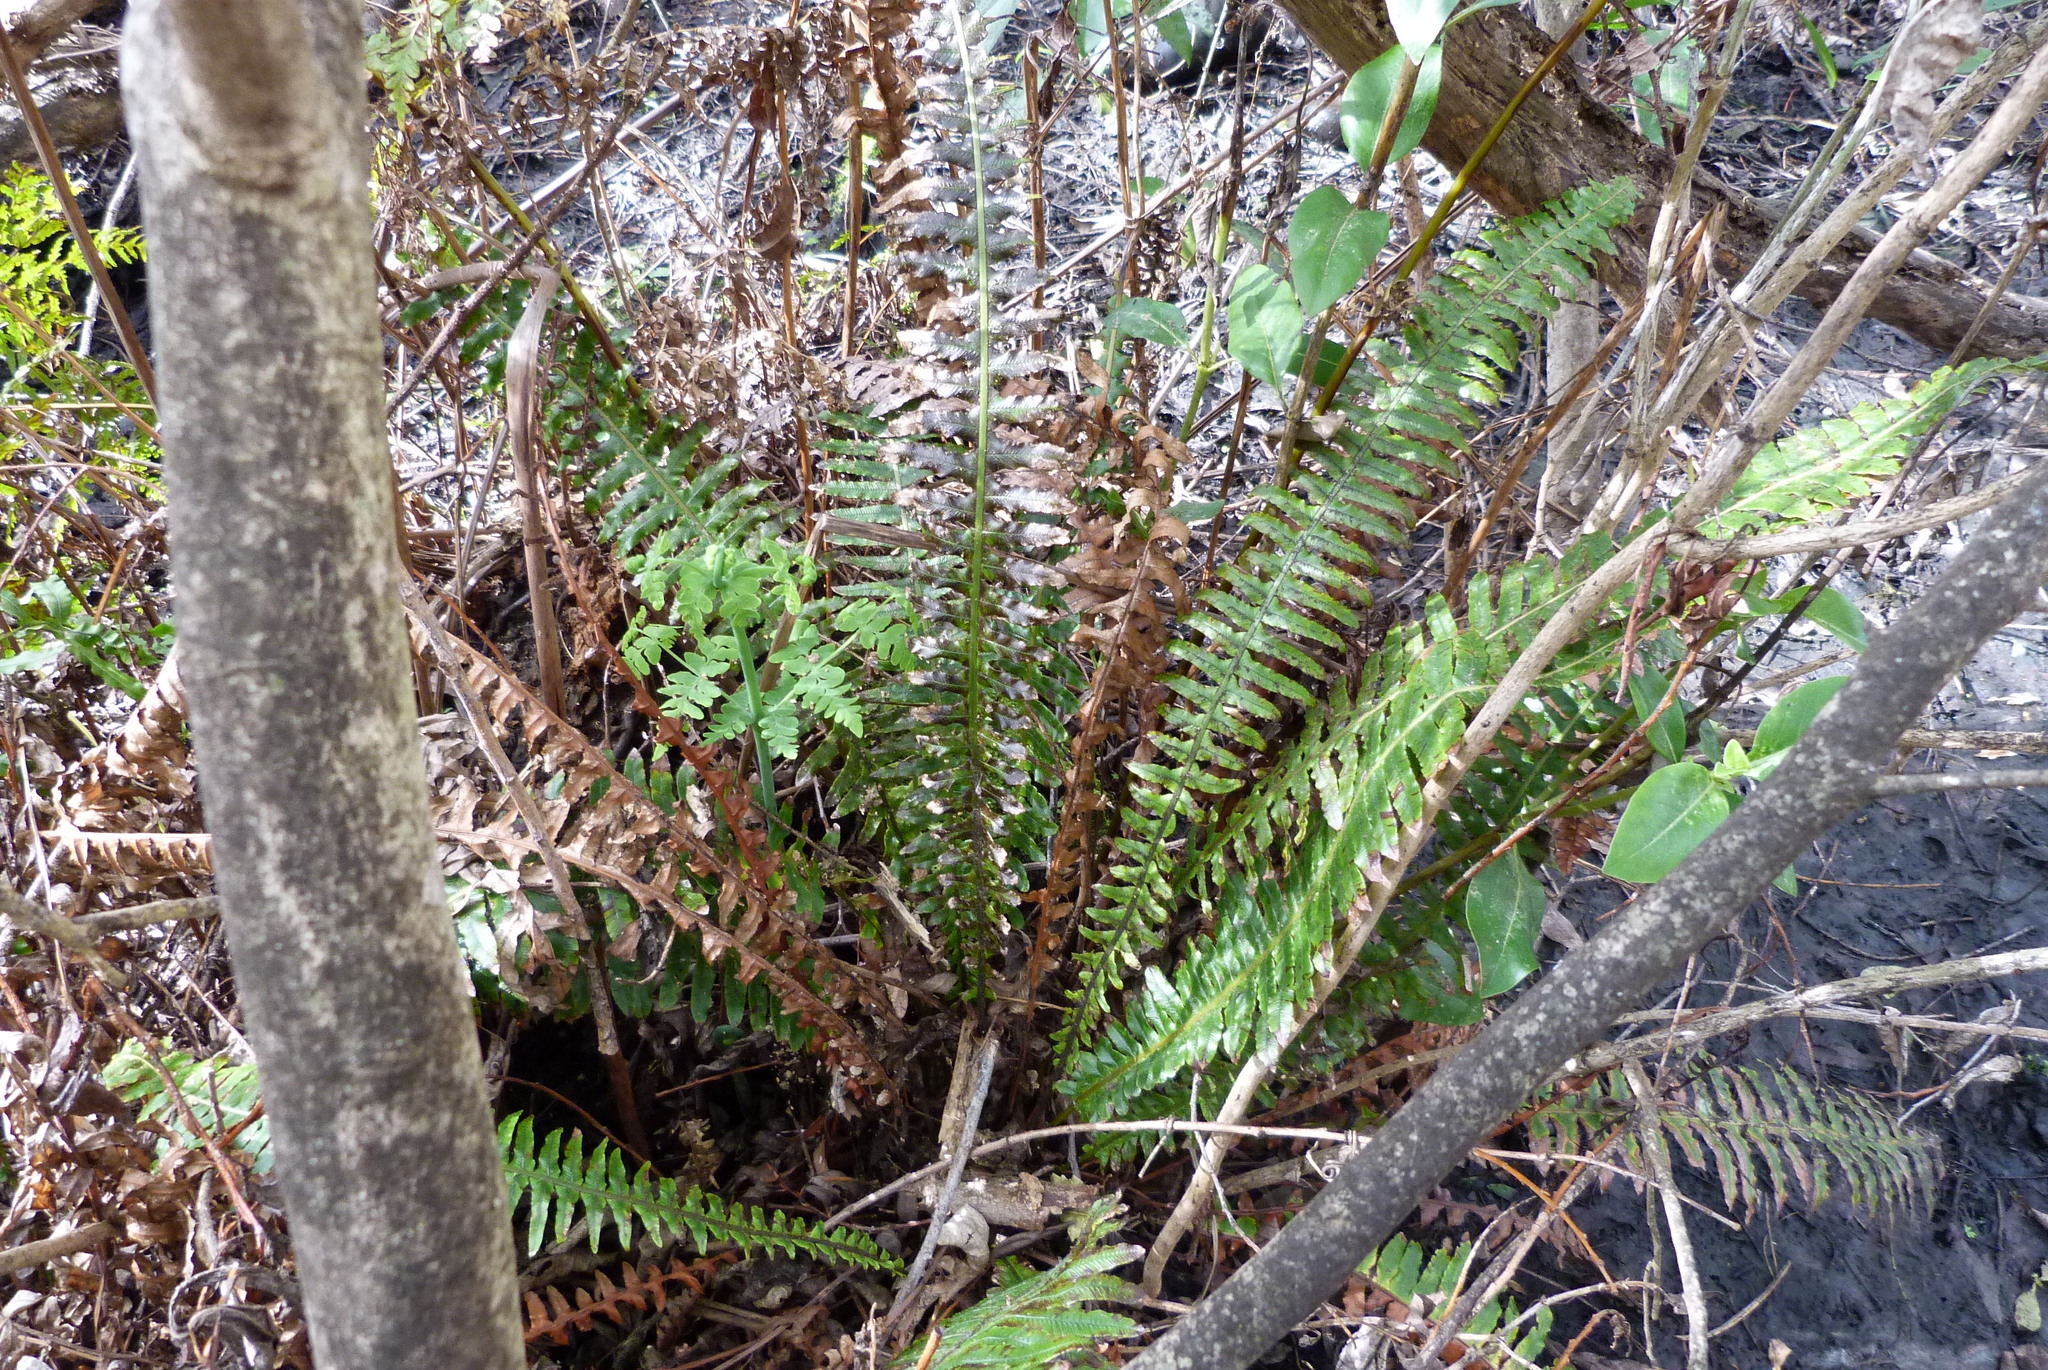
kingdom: Plantae
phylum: Tracheophyta
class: Polypodiopsida
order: Polypodiales
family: Blechnaceae
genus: Lomaria
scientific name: Lomaria discolor
